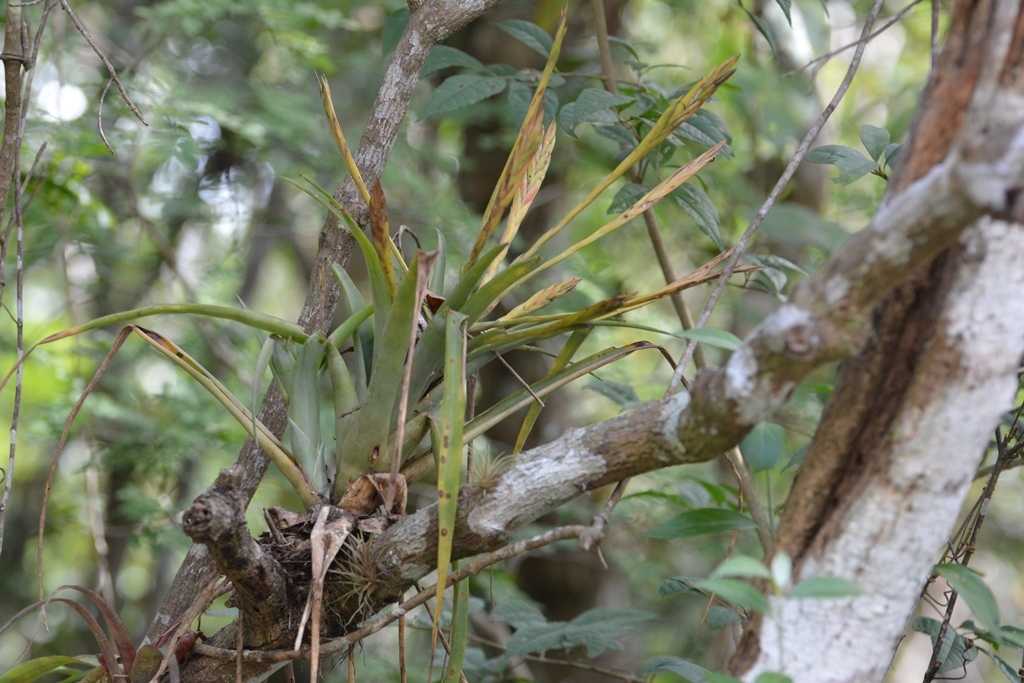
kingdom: Plantae
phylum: Tracheophyta
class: Liliopsida
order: Poales
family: Bromeliaceae
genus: Tillandsia
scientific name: Tillandsia flabellata
